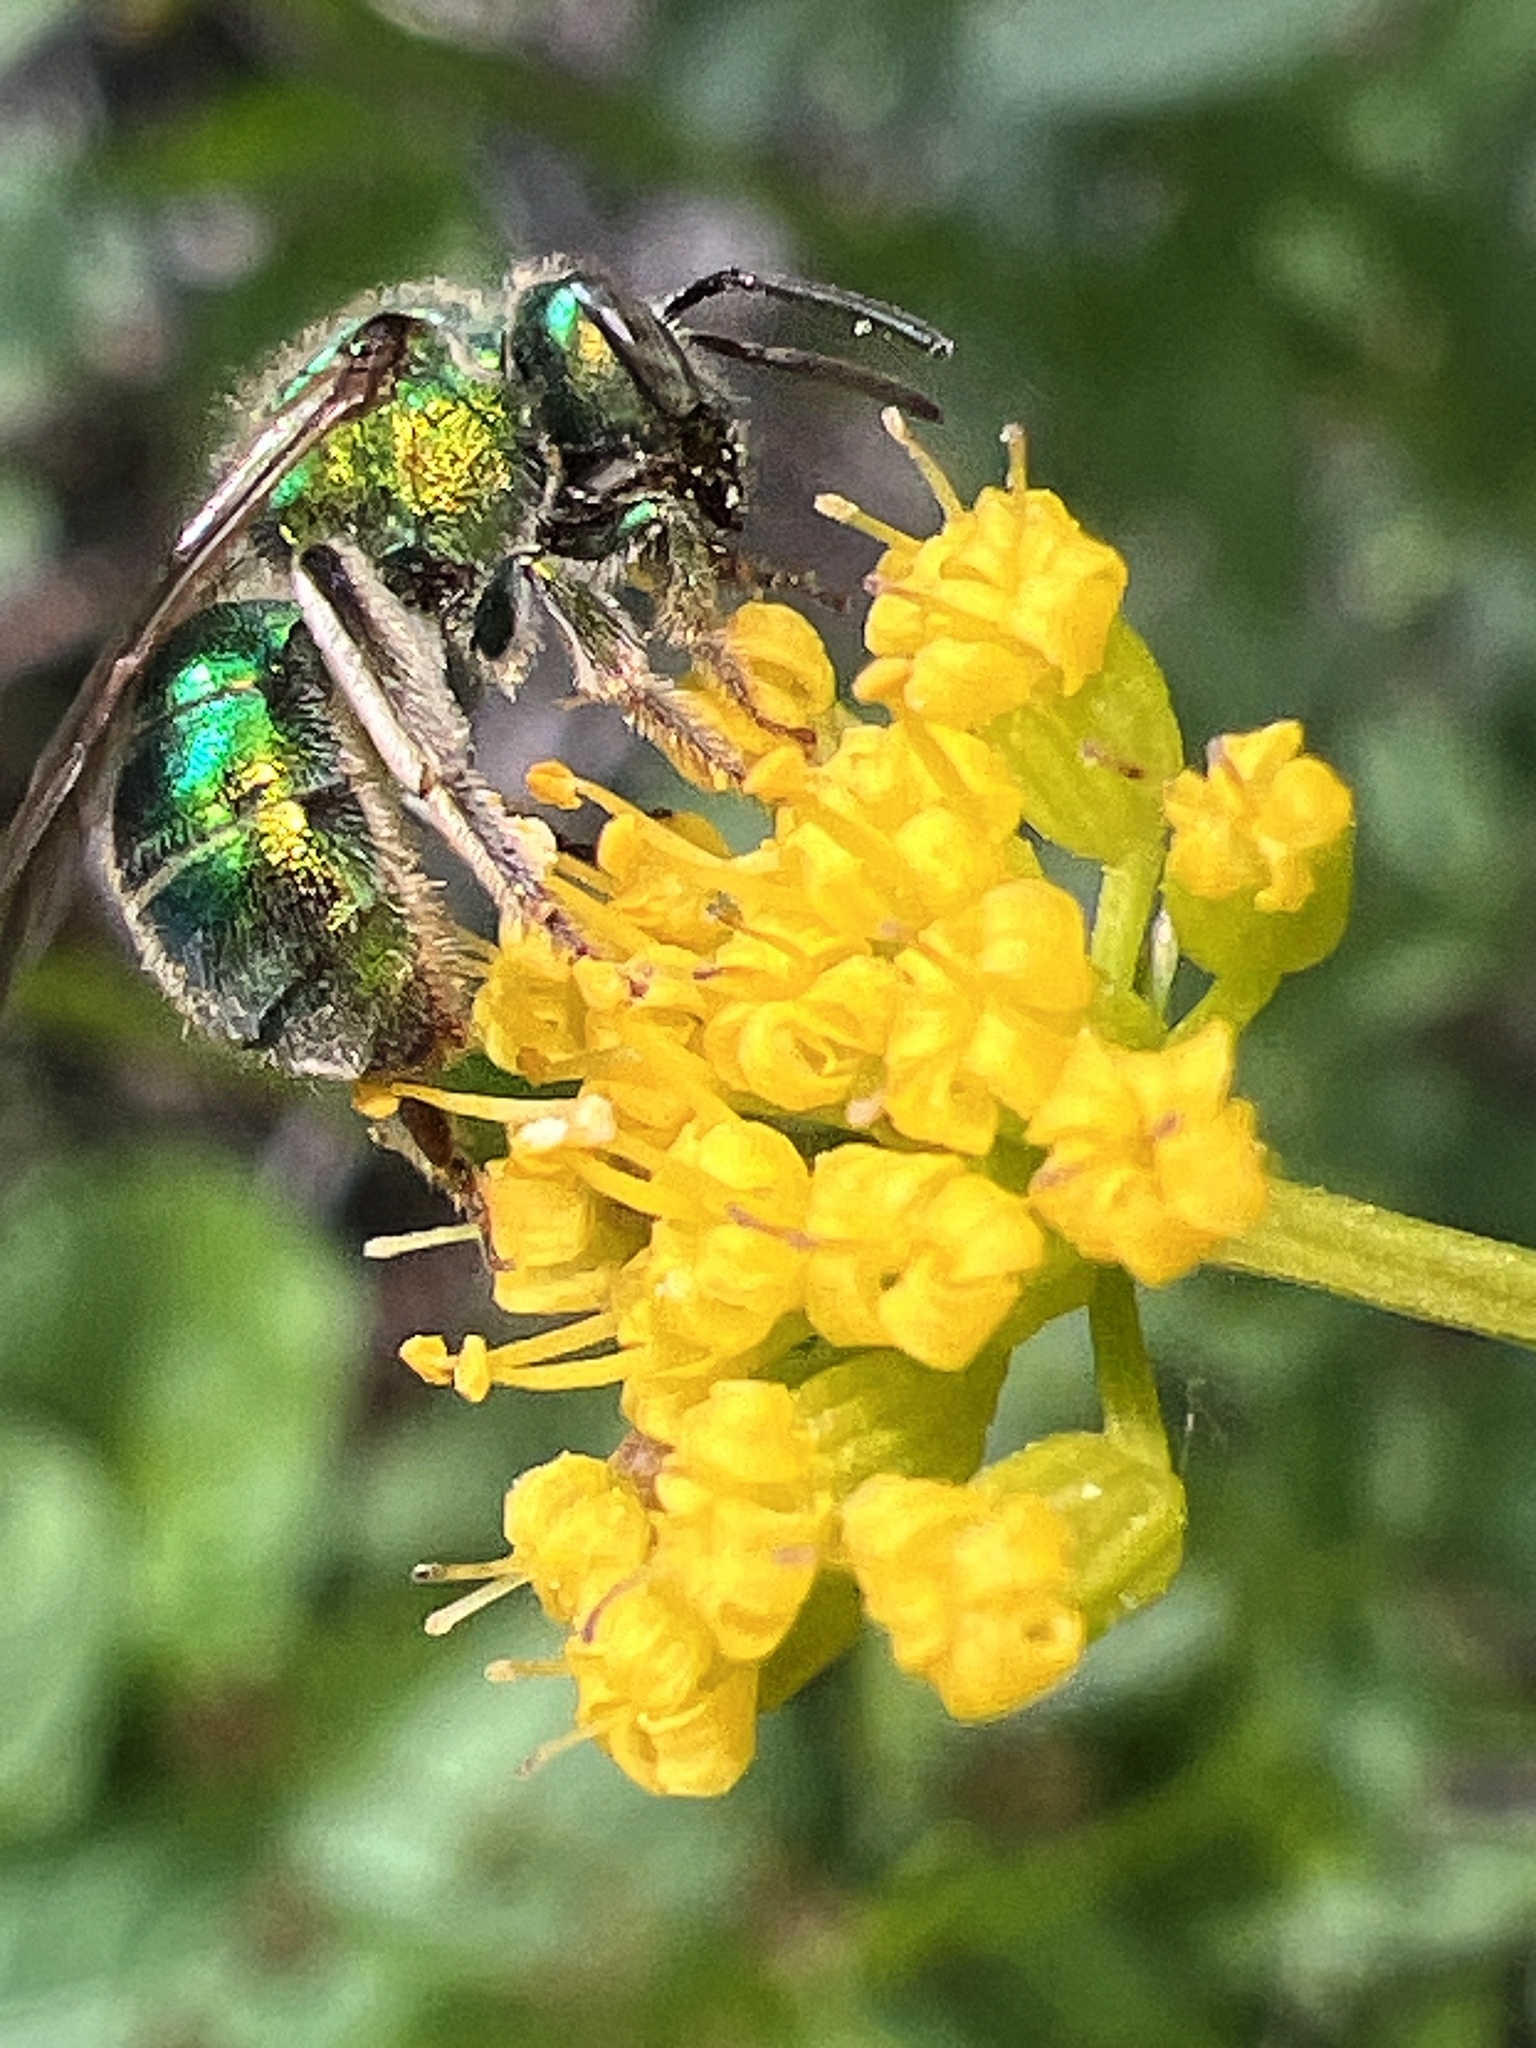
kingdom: Animalia
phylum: Arthropoda
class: Insecta
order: Hymenoptera
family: Halictidae
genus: Augochloropsis
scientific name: Augochloropsis viridula
